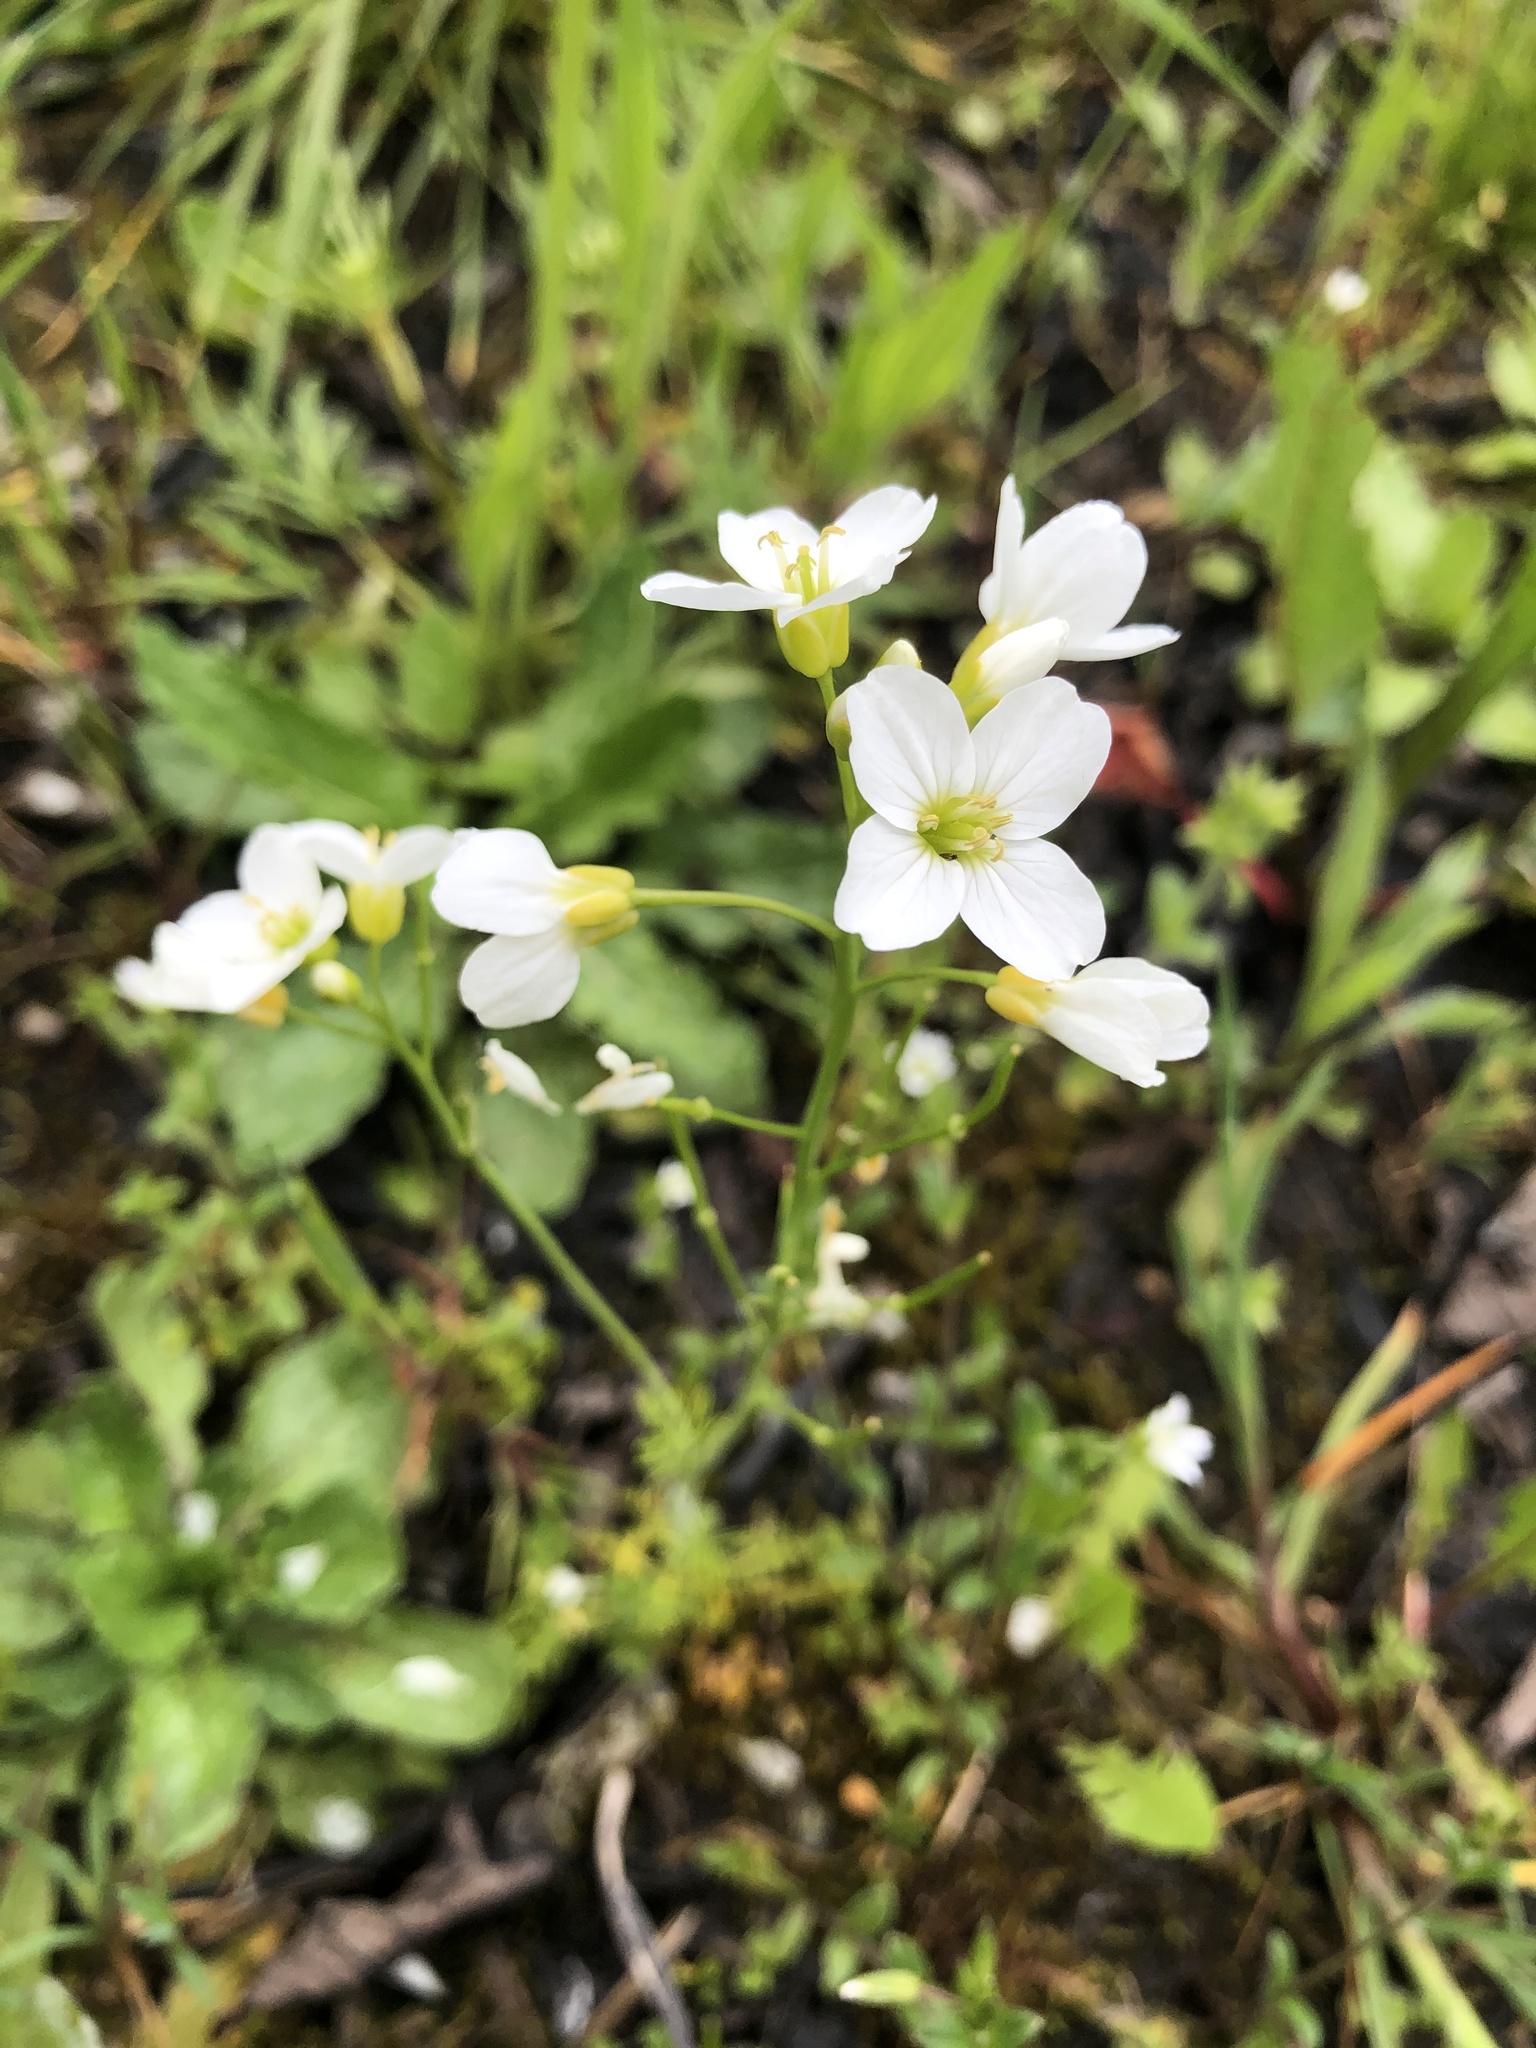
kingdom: Plantae
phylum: Tracheophyta
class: Magnoliopsida
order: Brassicales
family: Brassicaceae
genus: Cardamine
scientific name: Cardamine pratensis
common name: Cuckoo flower
